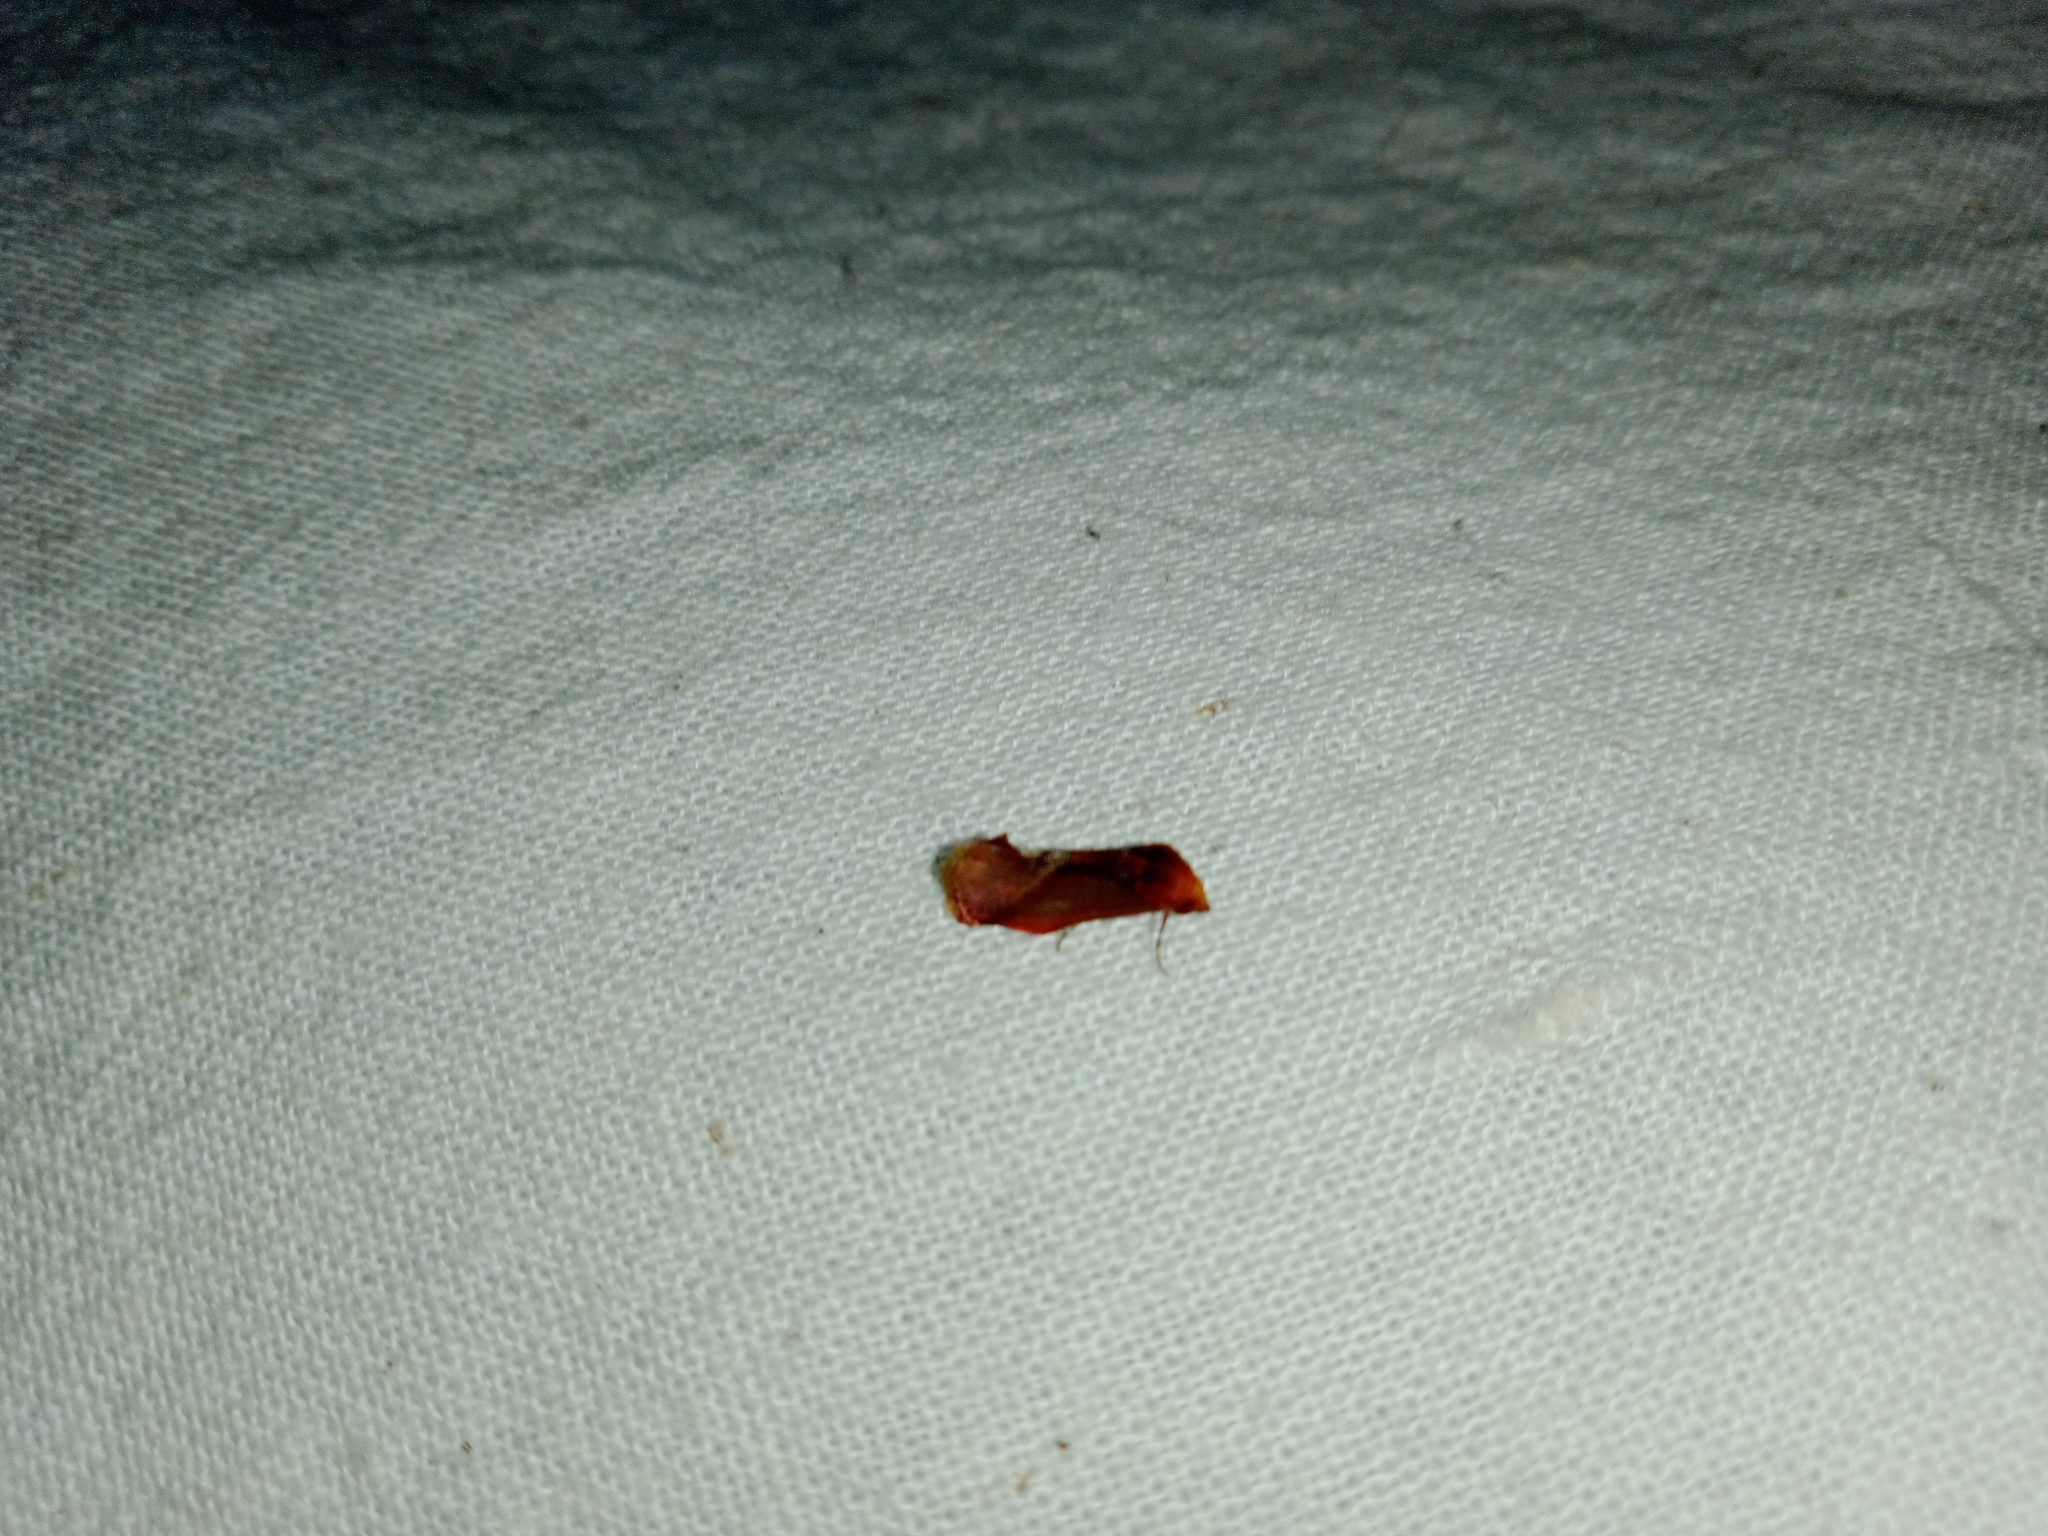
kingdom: Animalia
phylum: Arthropoda
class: Insecta
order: Lepidoptera
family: Erebidae
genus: Arsacia
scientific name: Arsacia rectalis
